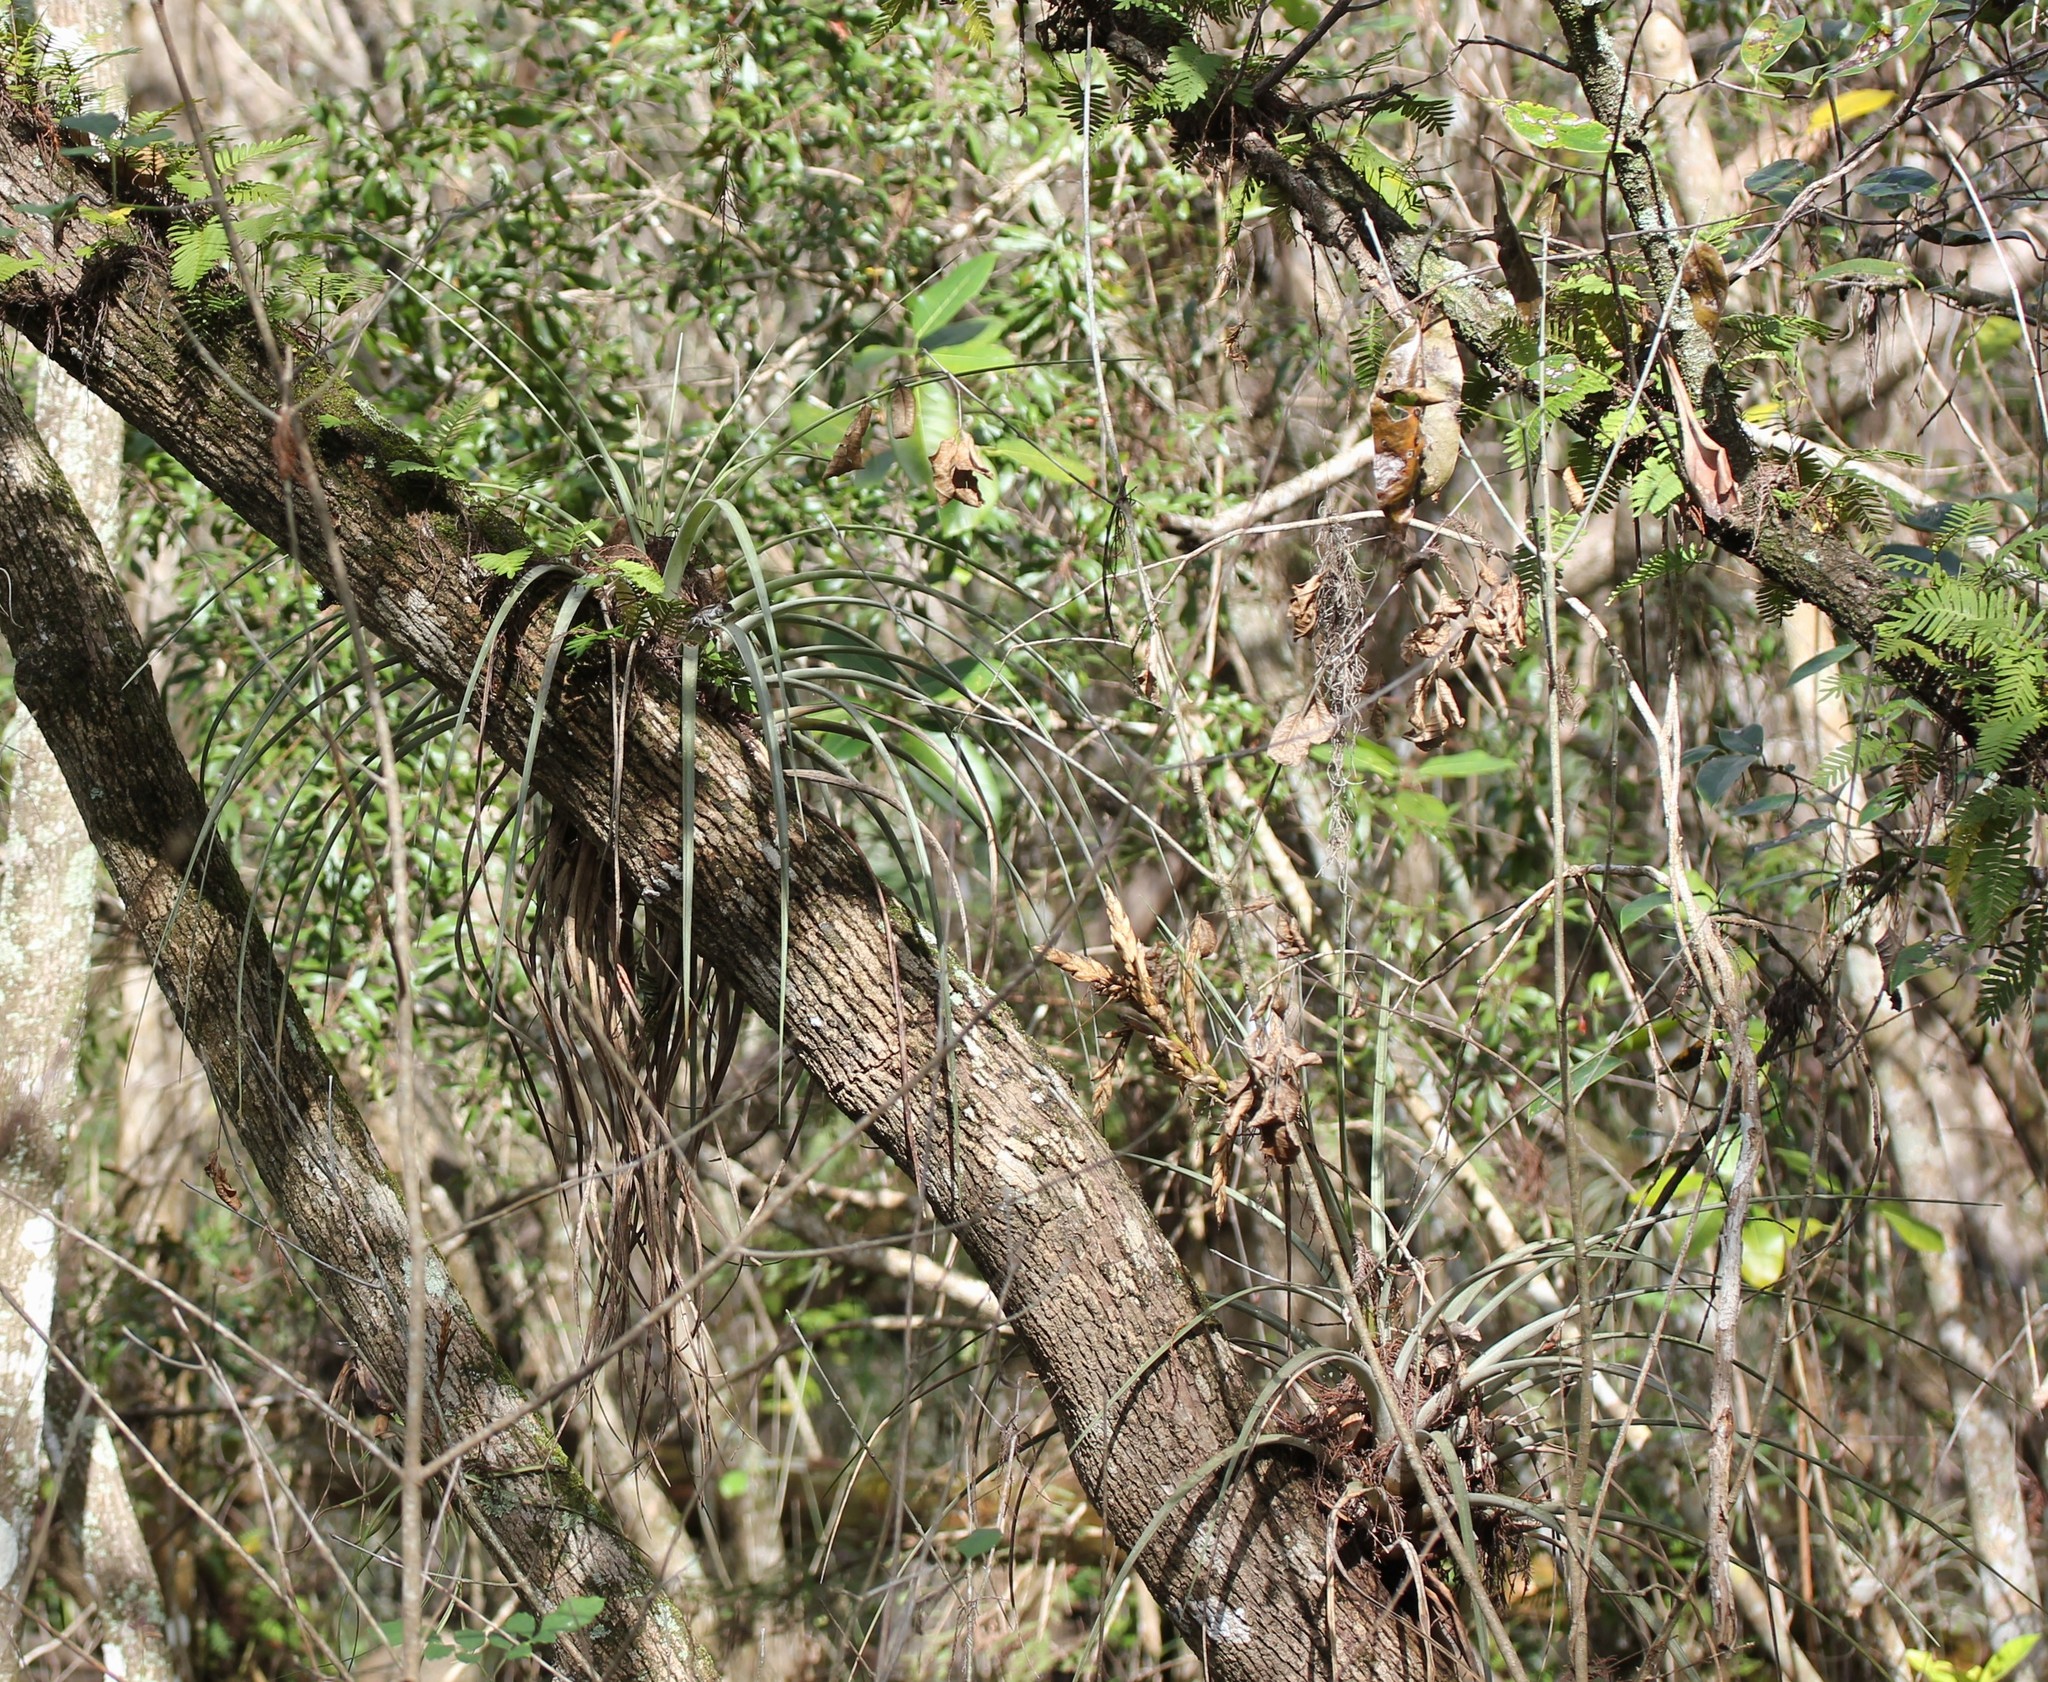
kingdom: Plantae
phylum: Tracheophyta
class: Liliopsida
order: Poales
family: Bromeliaceae
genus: Tillandsia
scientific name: Tillandsia fasciculata
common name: Giant airplant
